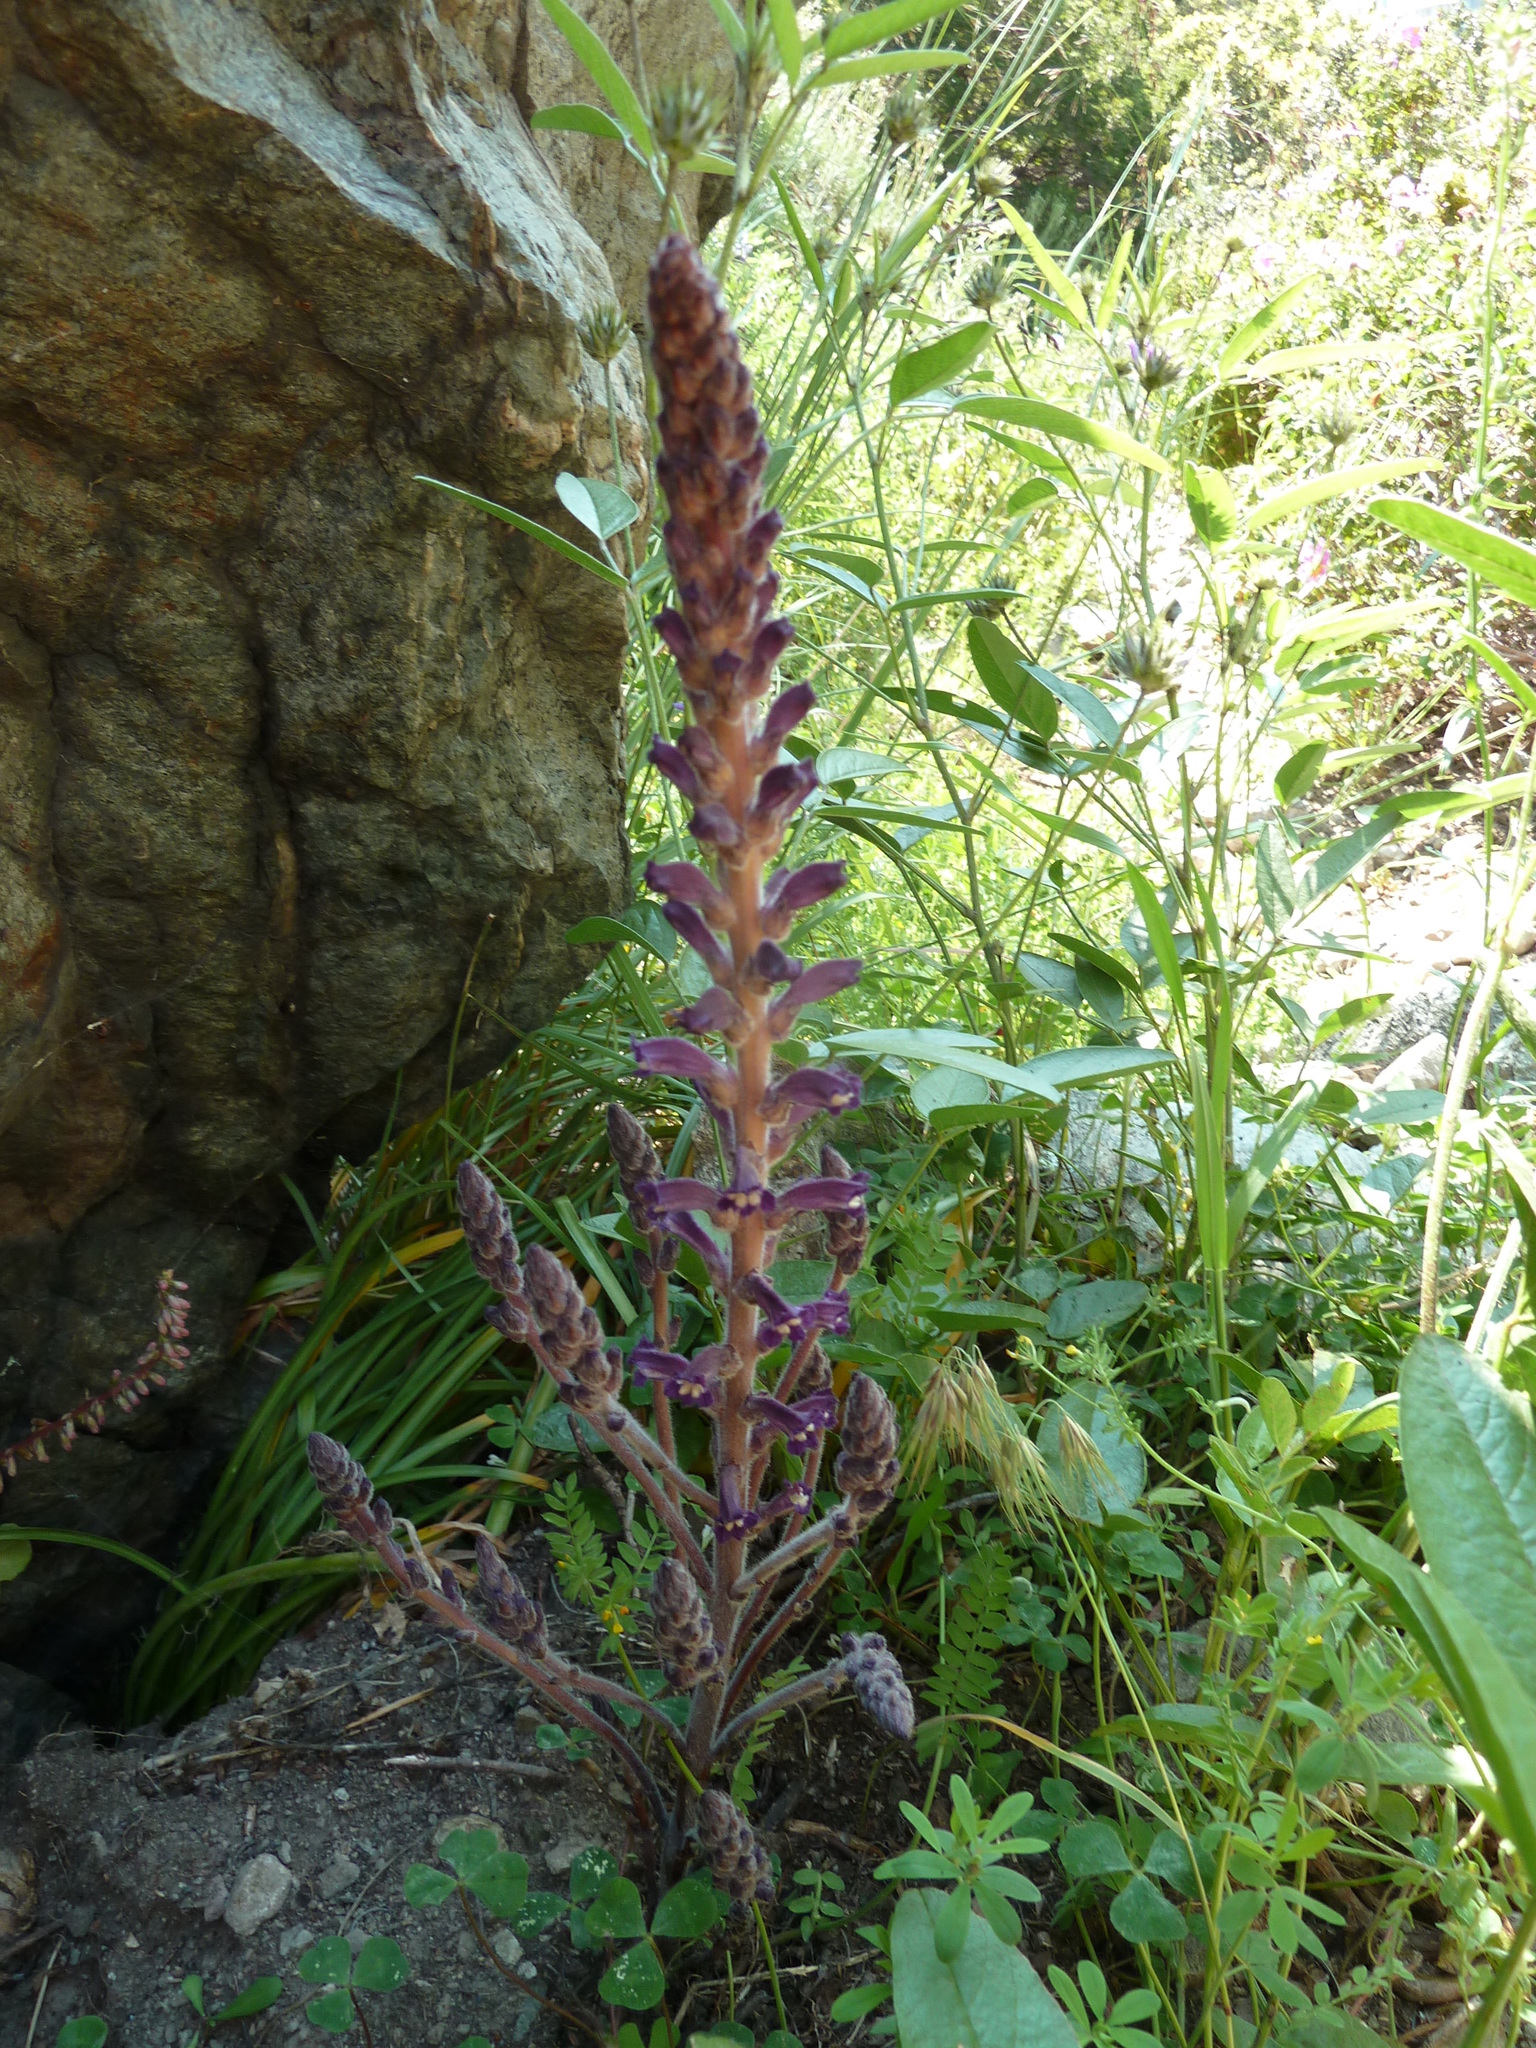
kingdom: Plantae
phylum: Tracheophyta
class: Magnoliopsida
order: Lamiales
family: Orobanchaceae
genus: Phelipanche
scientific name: Phelipanche lavandulacea
